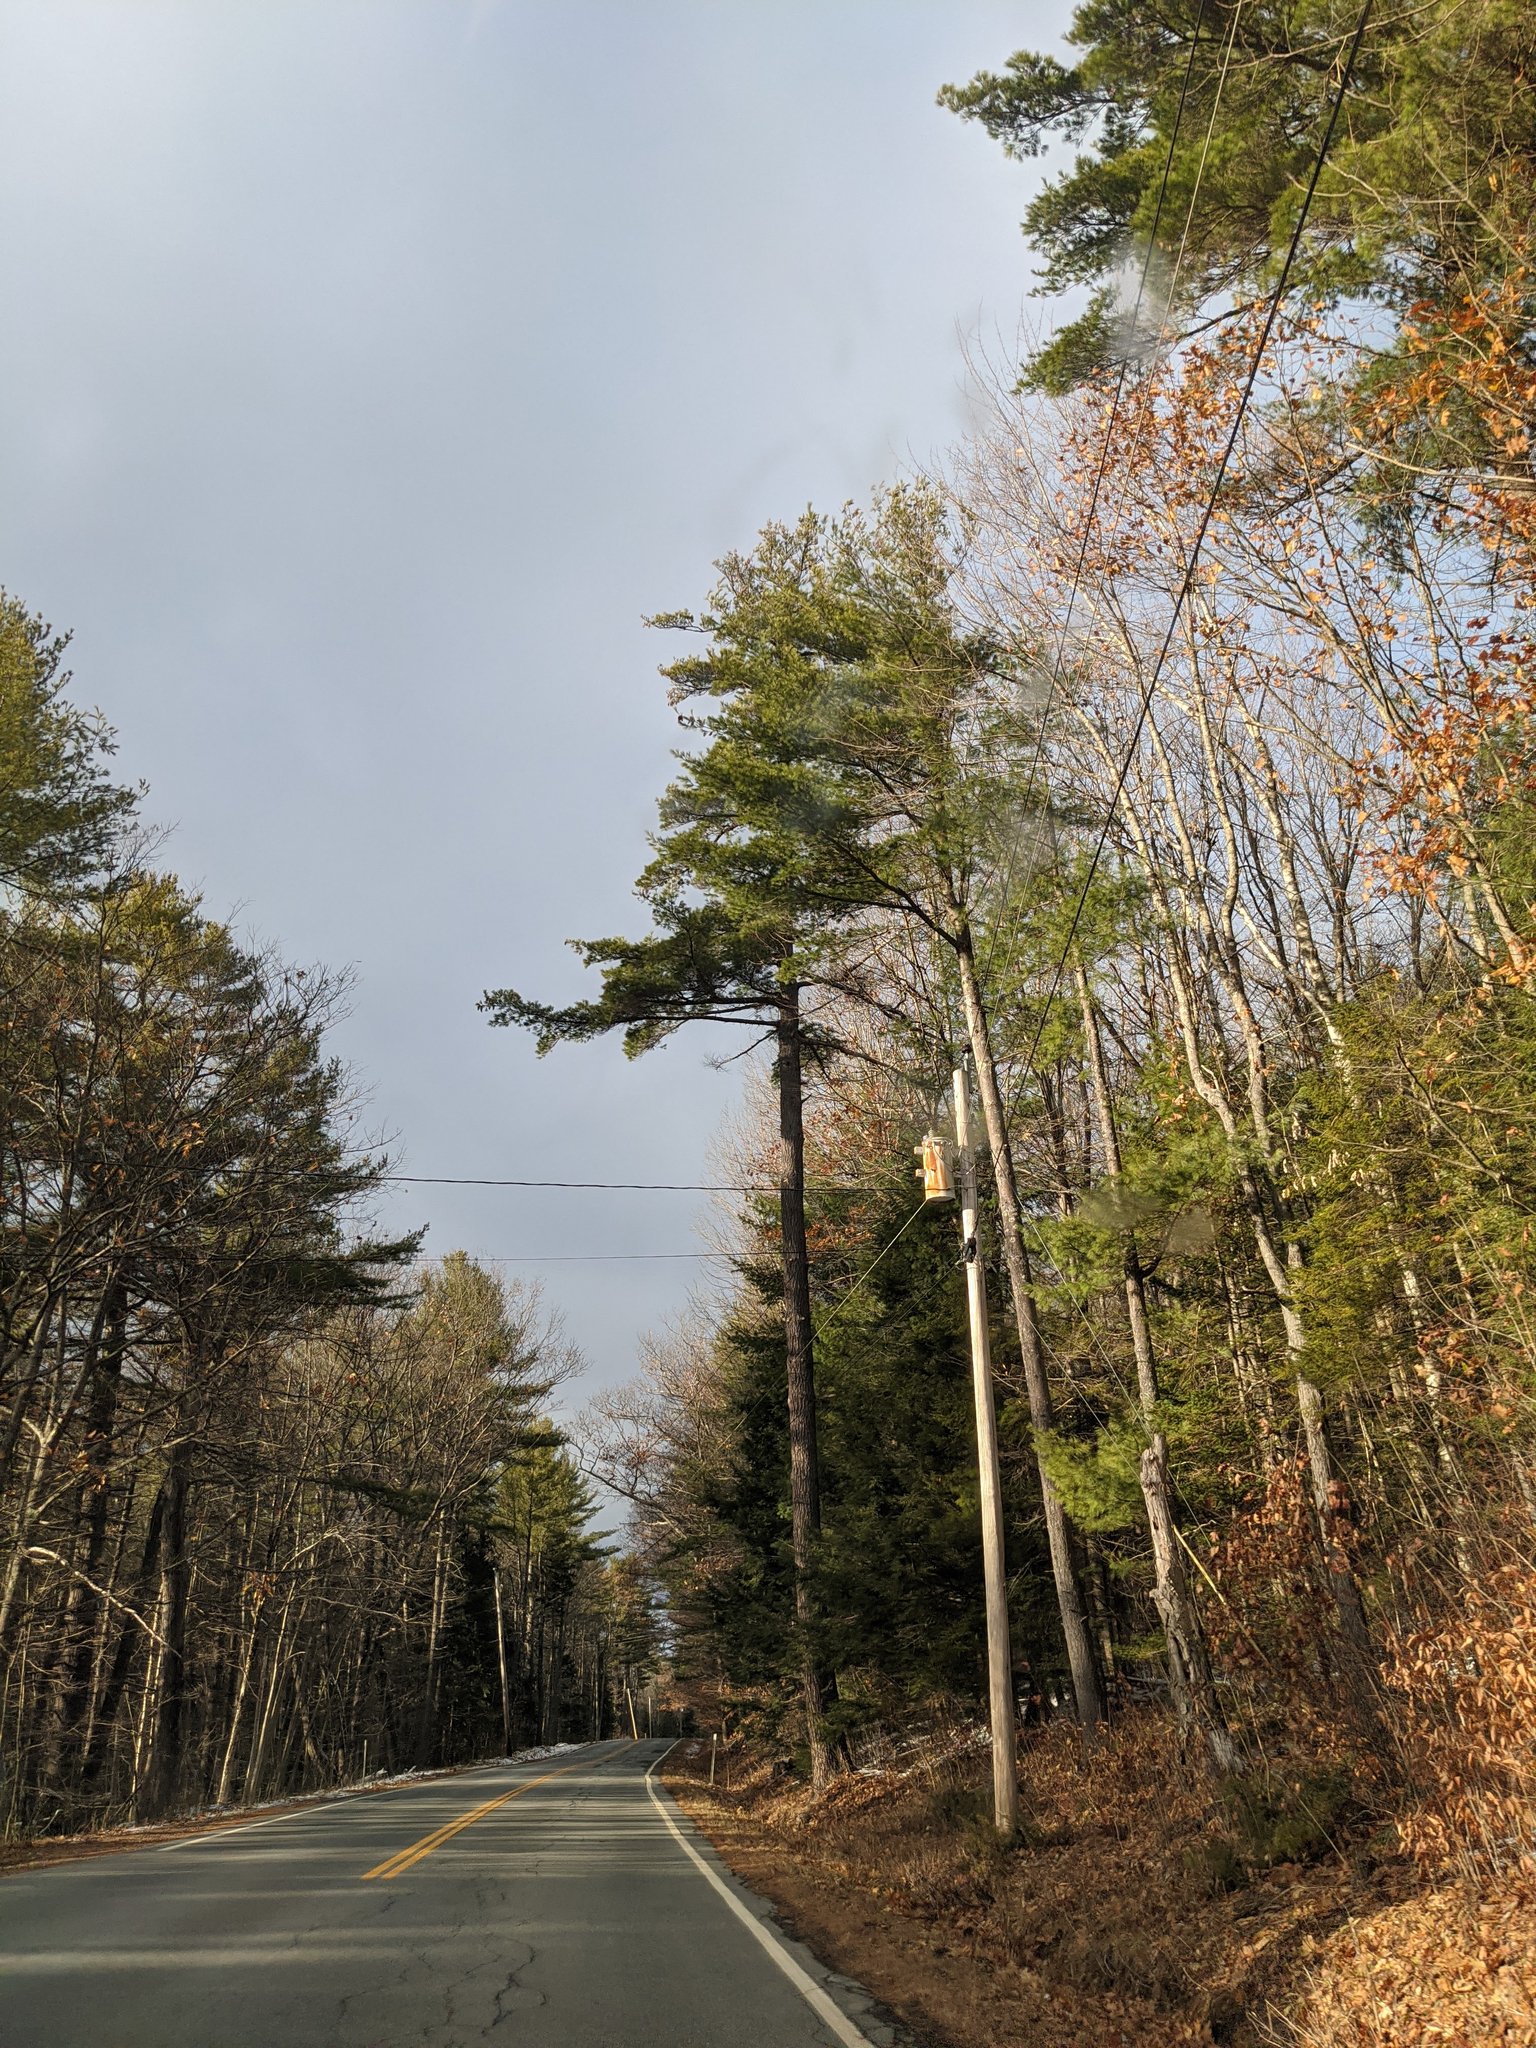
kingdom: Plantae
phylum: Tracheophyta
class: Pinopsida
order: Pinales
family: Pinaceae
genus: Pinus
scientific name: Pinus strobus
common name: Weymouth pine
